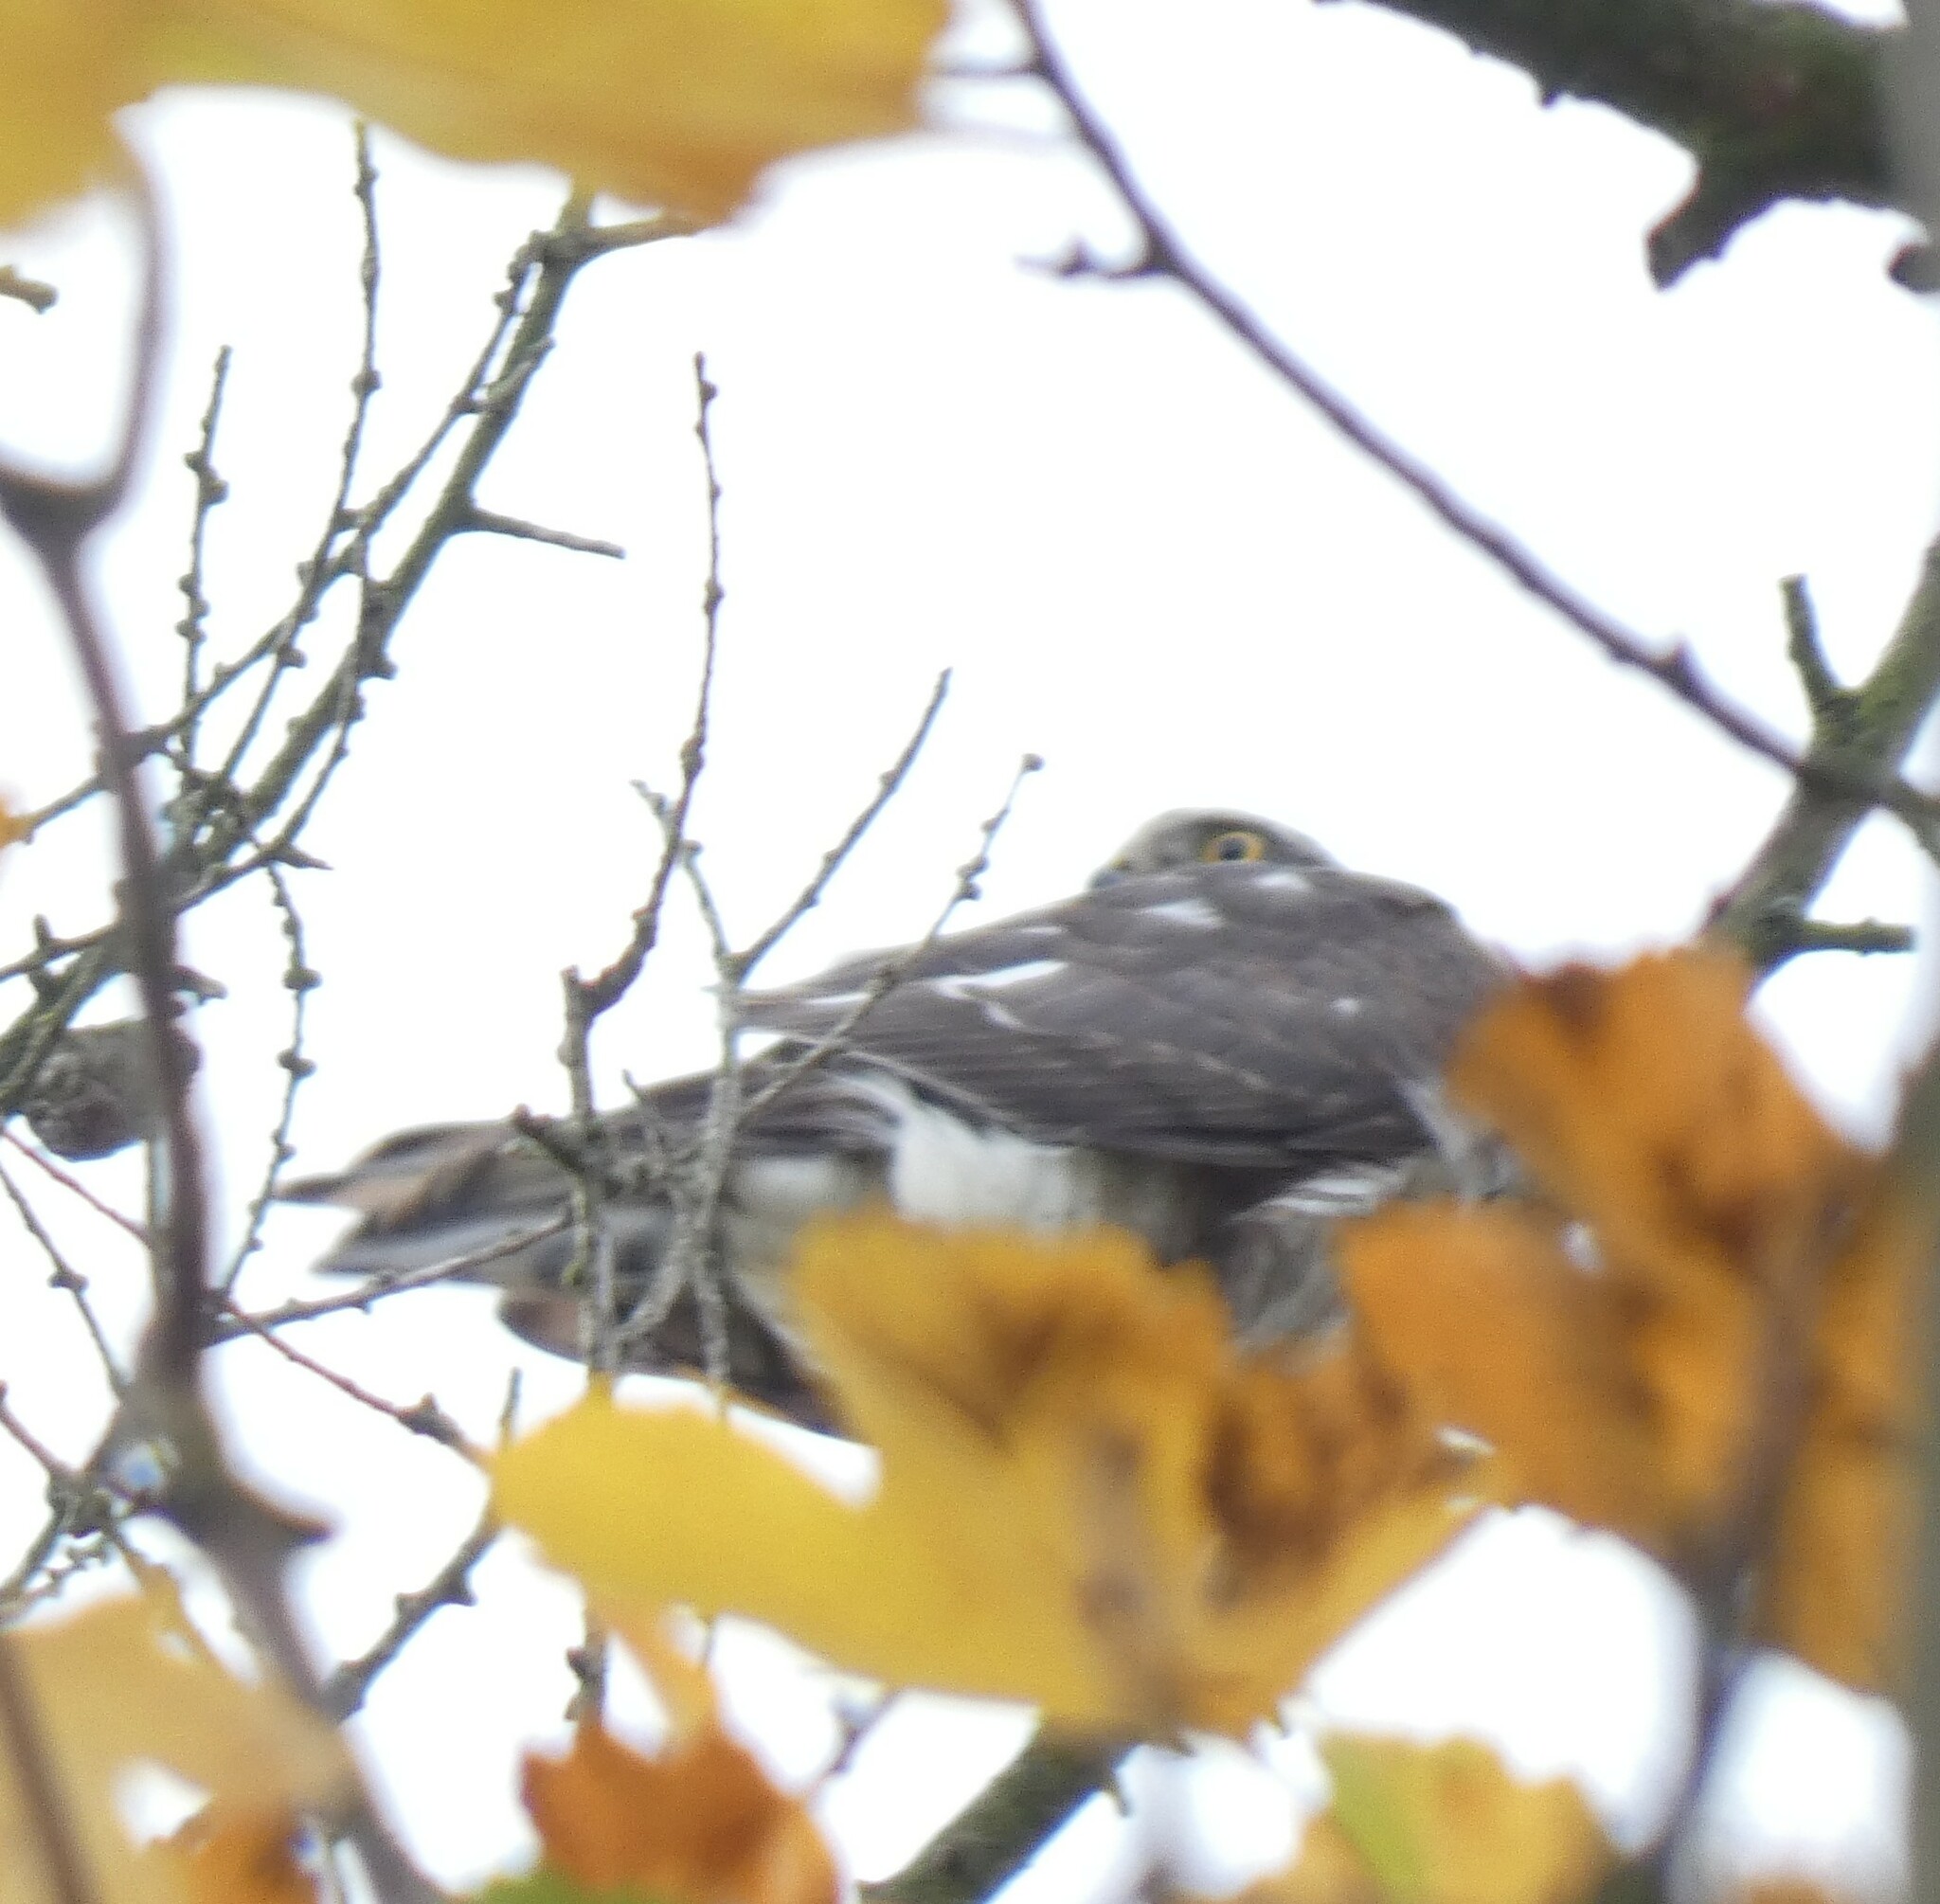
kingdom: Animalia
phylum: Chordata
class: Aves
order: Accipitriformes
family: Accipitridae
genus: Accipiter
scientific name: Accipiter nisus
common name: Eurasian sparrowhawk
